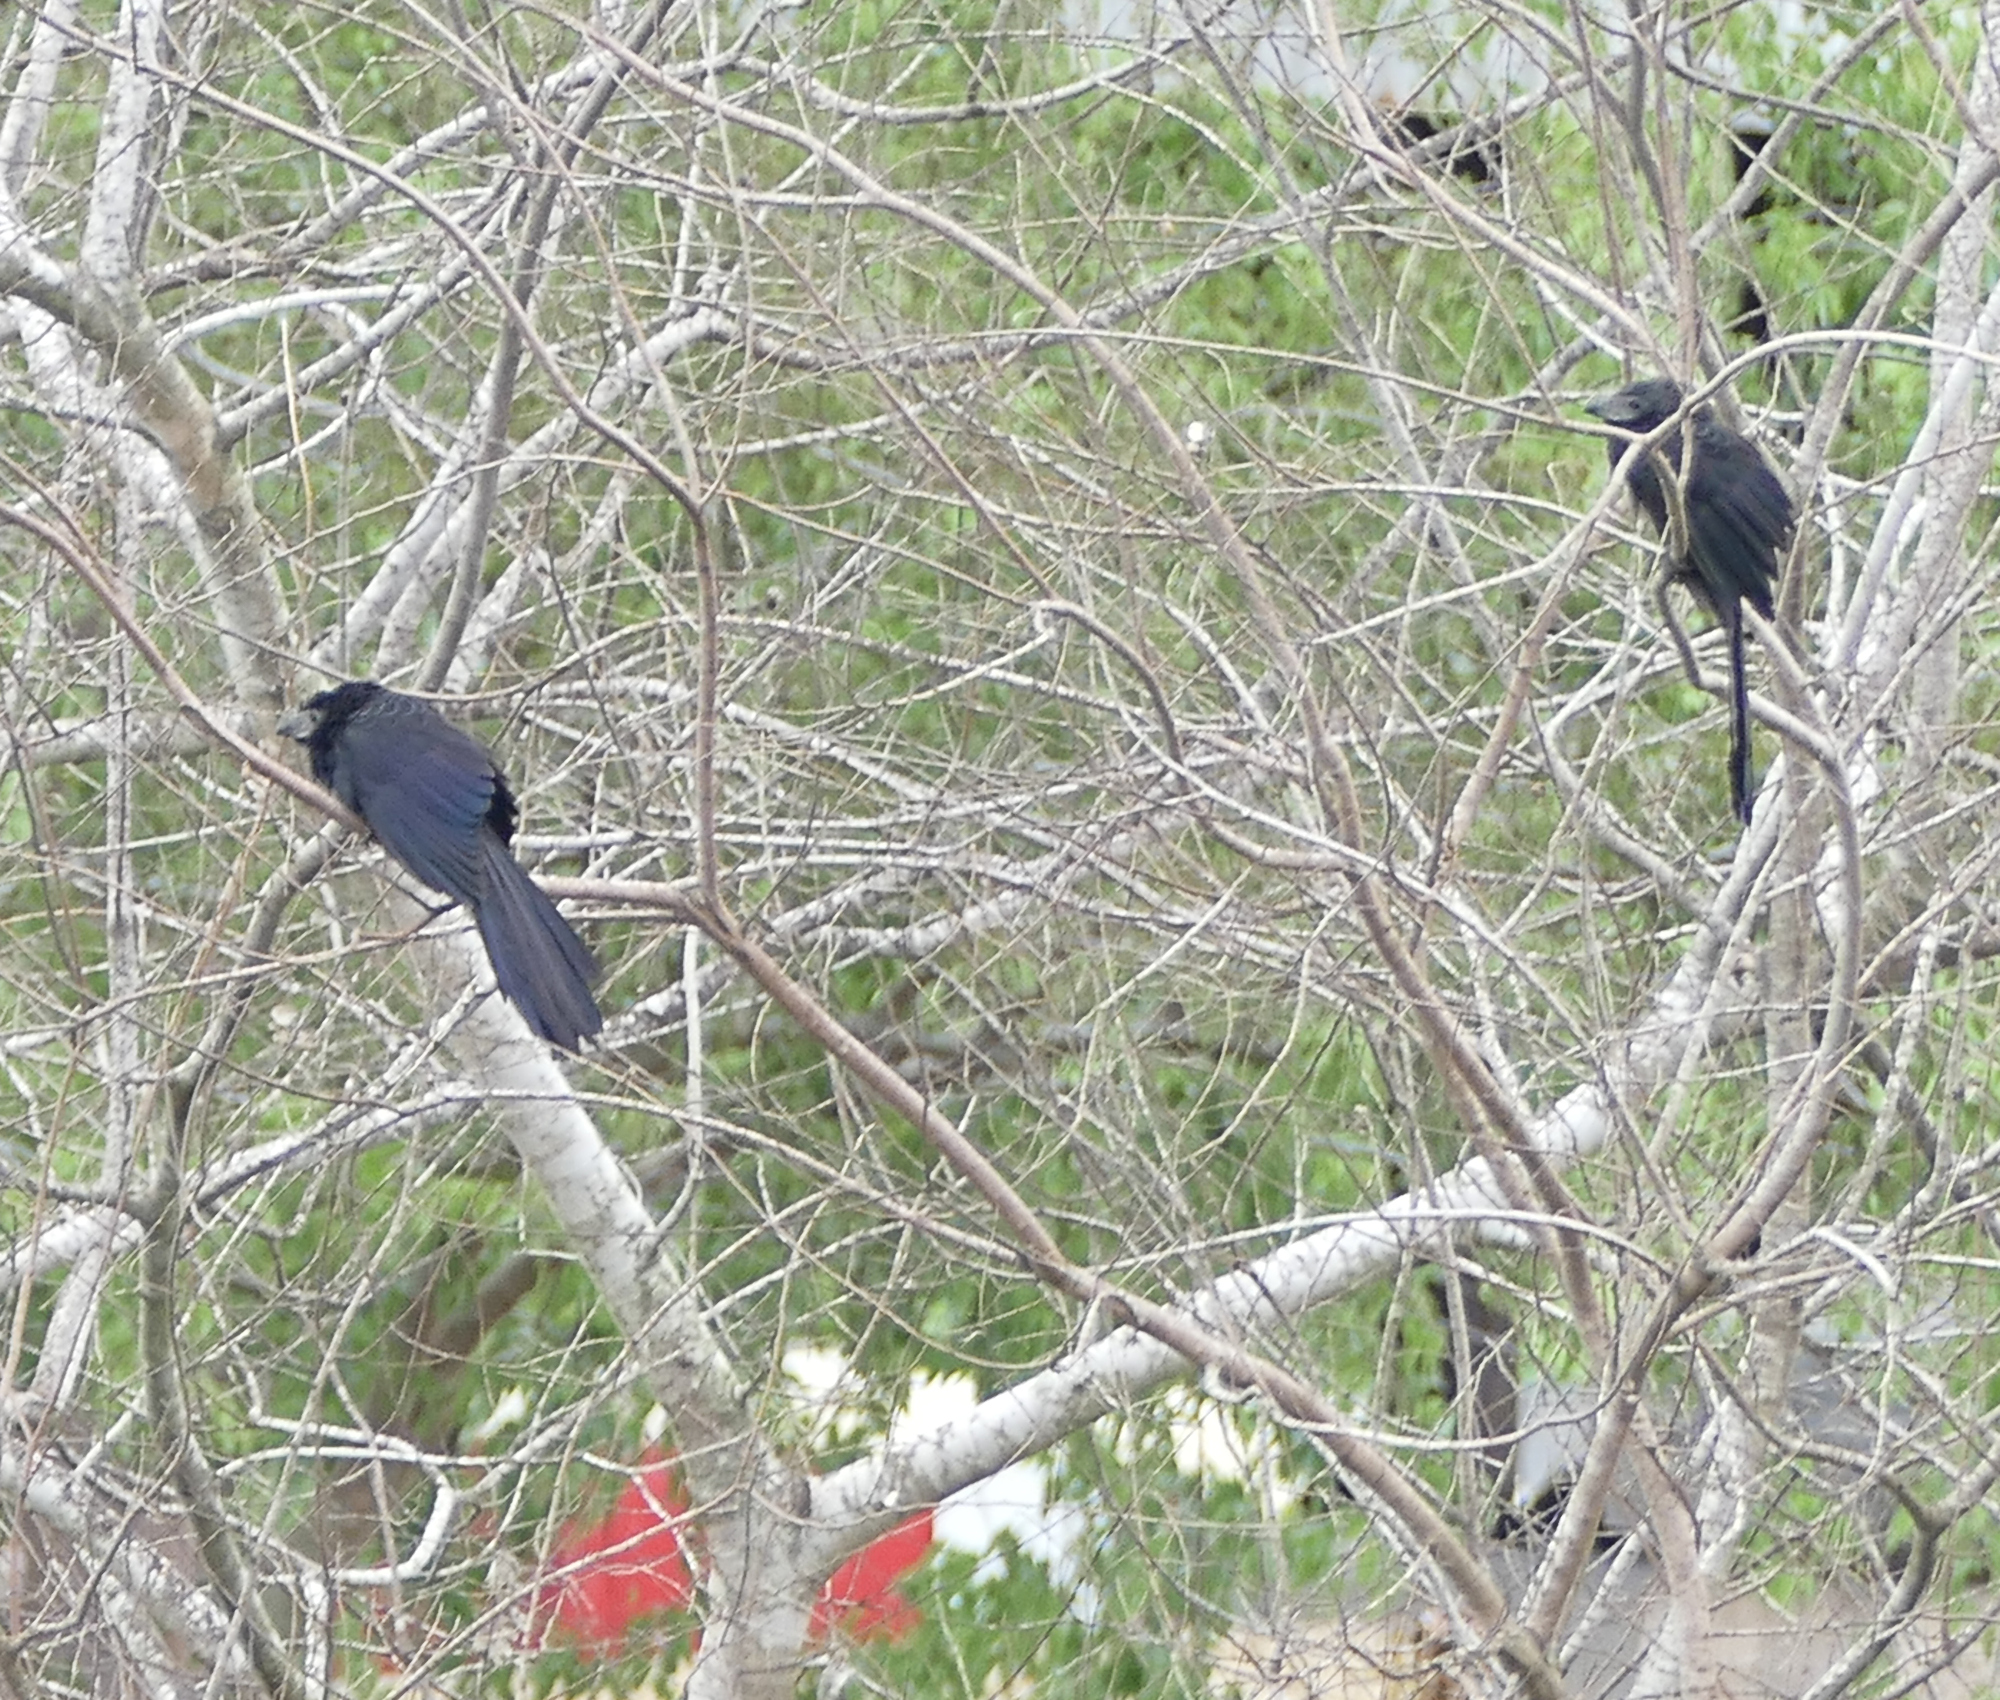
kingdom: Animalia
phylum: Chordata
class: Aves
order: Cuculiformes
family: Cuculidae
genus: Crotophaga
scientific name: Crotophaga sulcirostris
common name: Groove-billed ani
